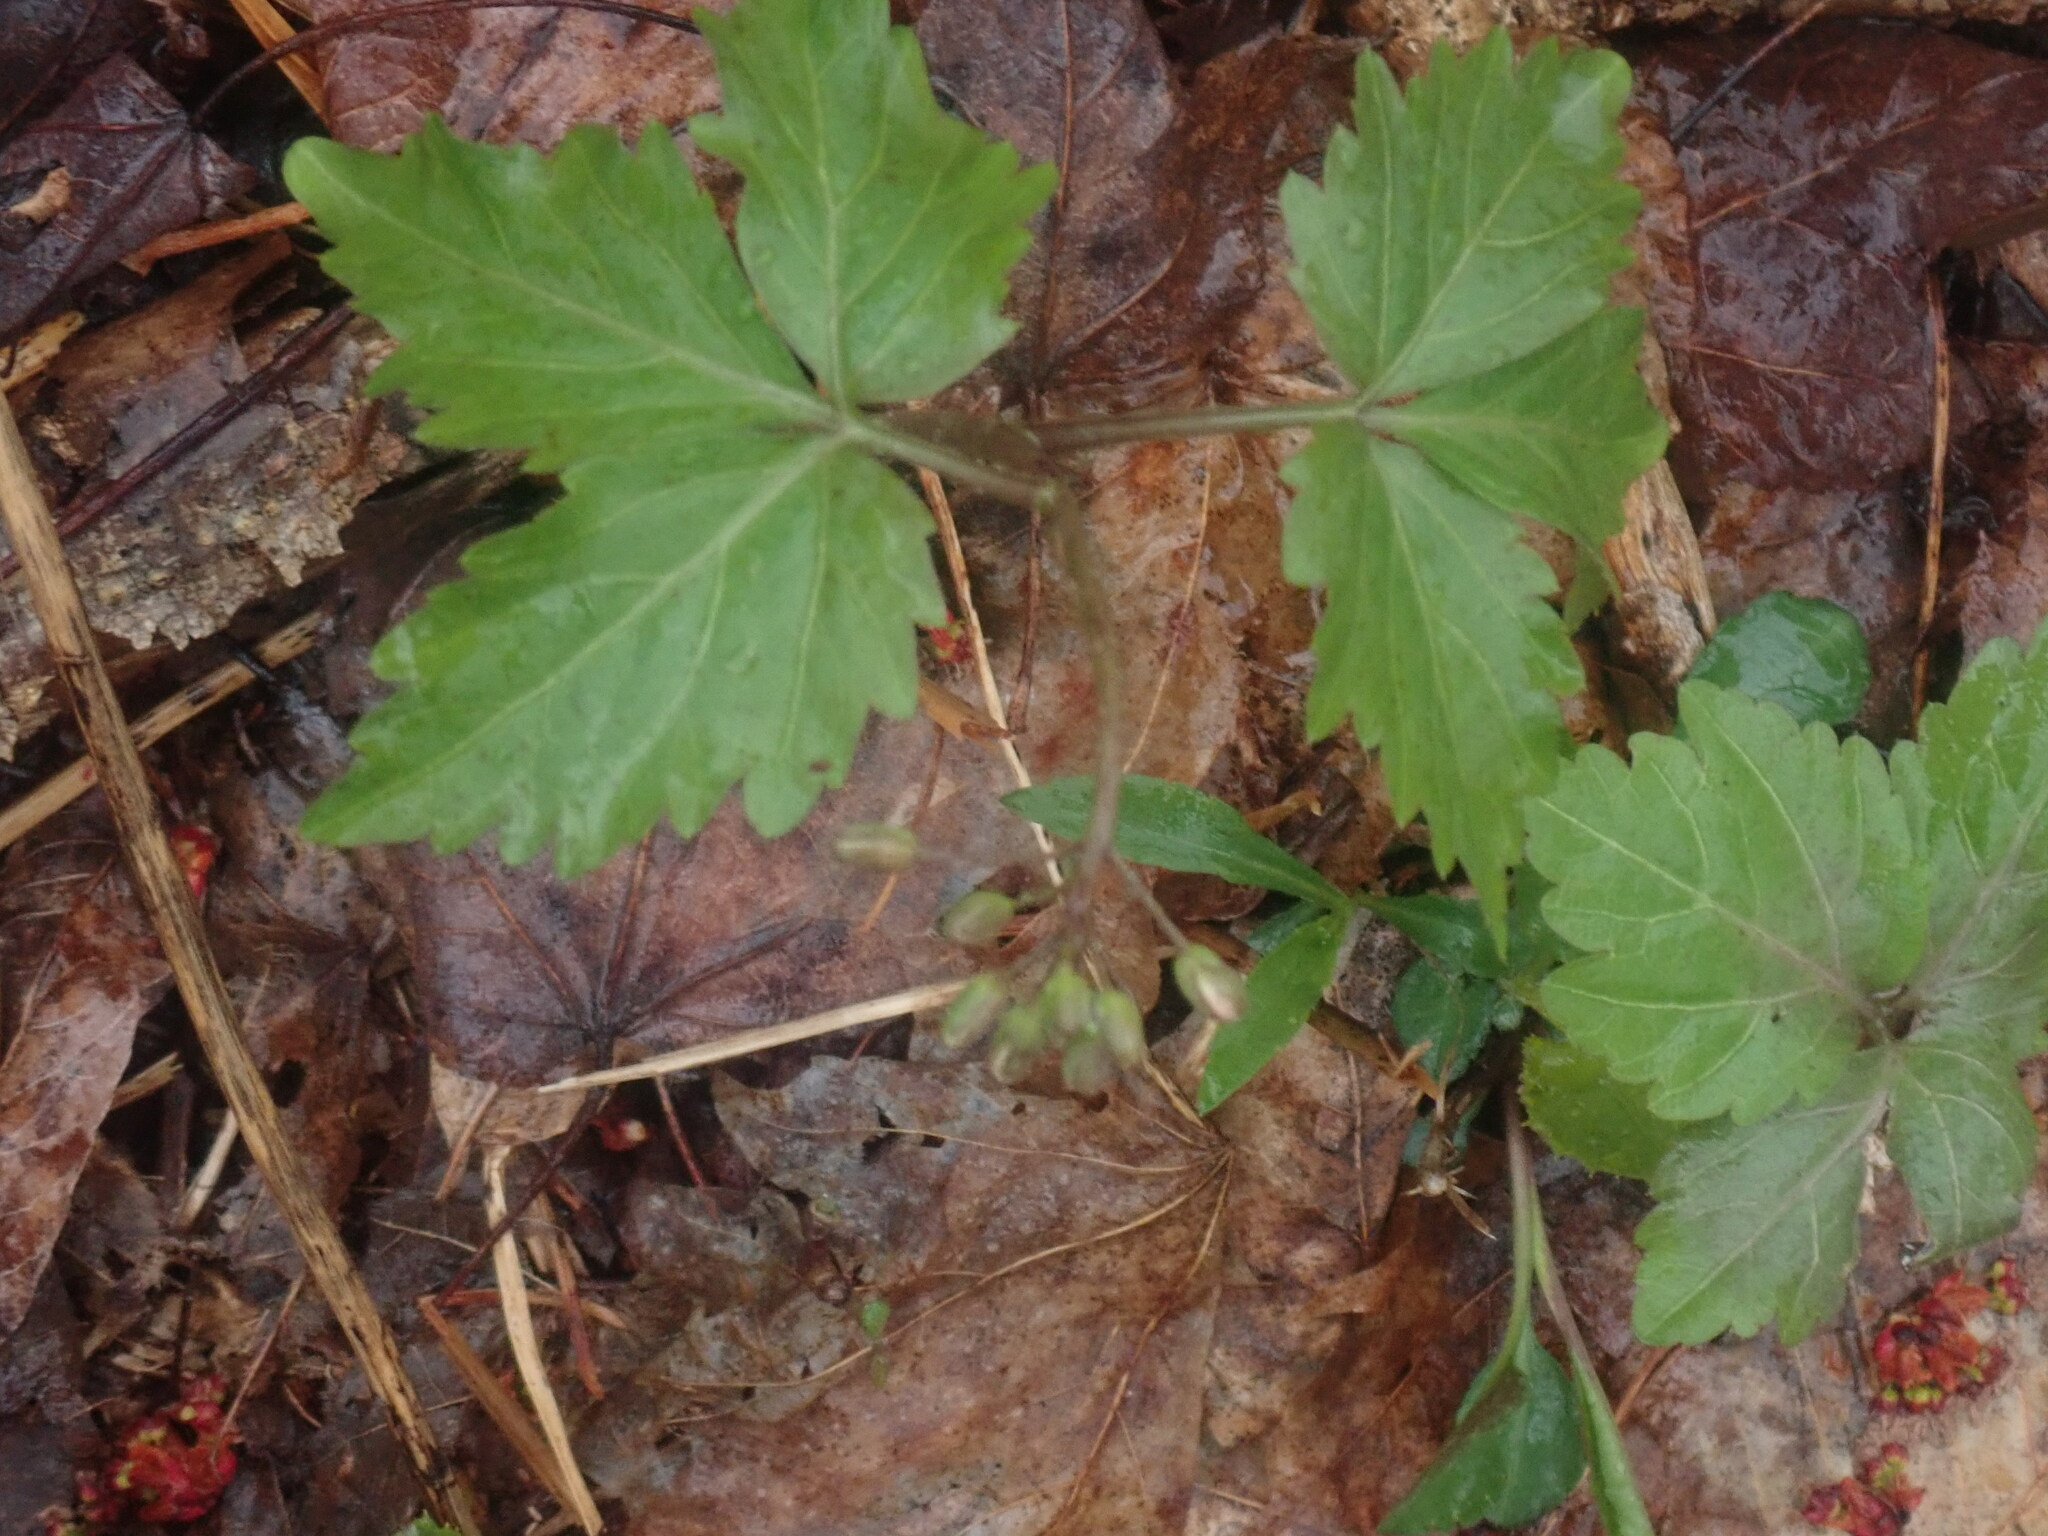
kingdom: Plantae
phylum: Tracheophyta
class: Magnoliopsida
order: Brassicales
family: Brassicaceae
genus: Cardamine
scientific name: Cardamine diphylla
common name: Broad-leaved toothwort
